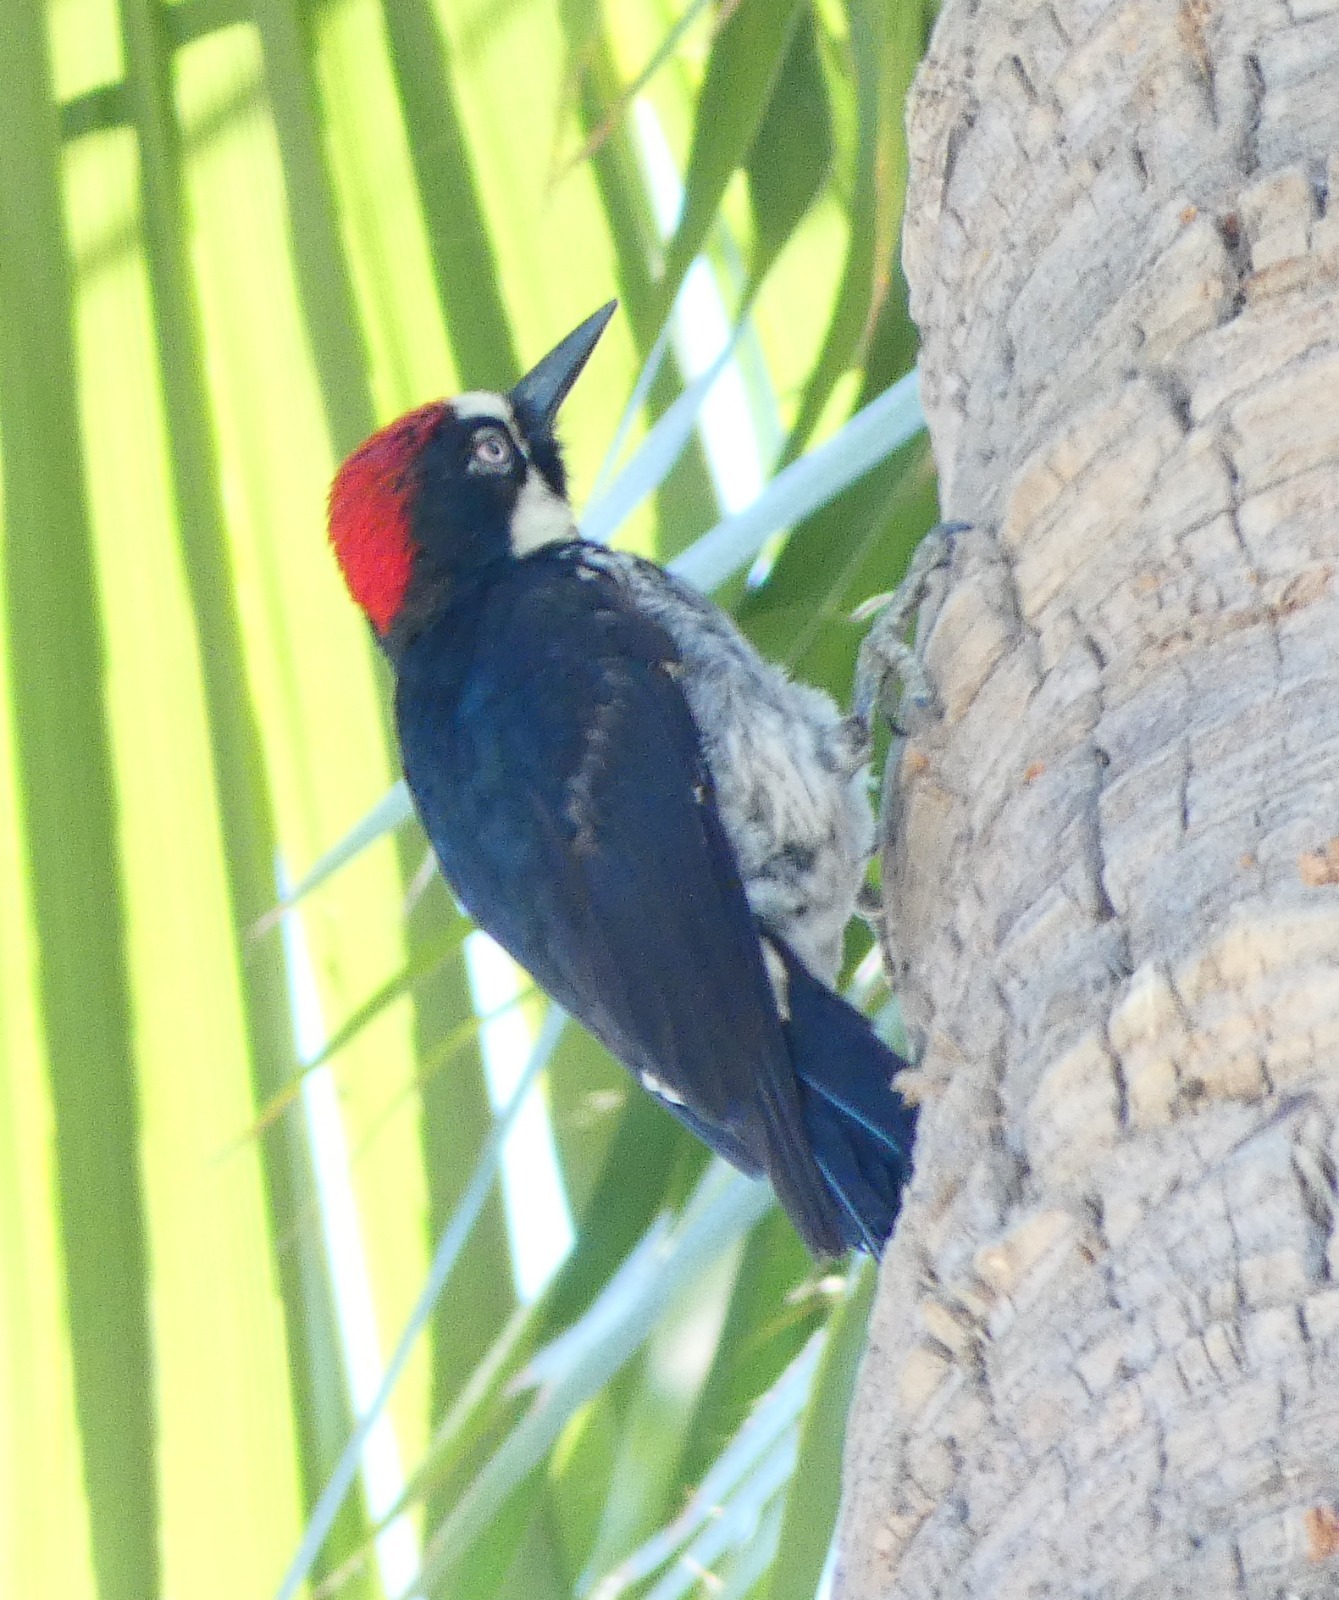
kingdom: Animalia
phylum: Chordata
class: Aves
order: Piciformes
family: Picidae
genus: Melanerpes
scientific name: Melanerpes formicivorus
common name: Acorn woodpecker
